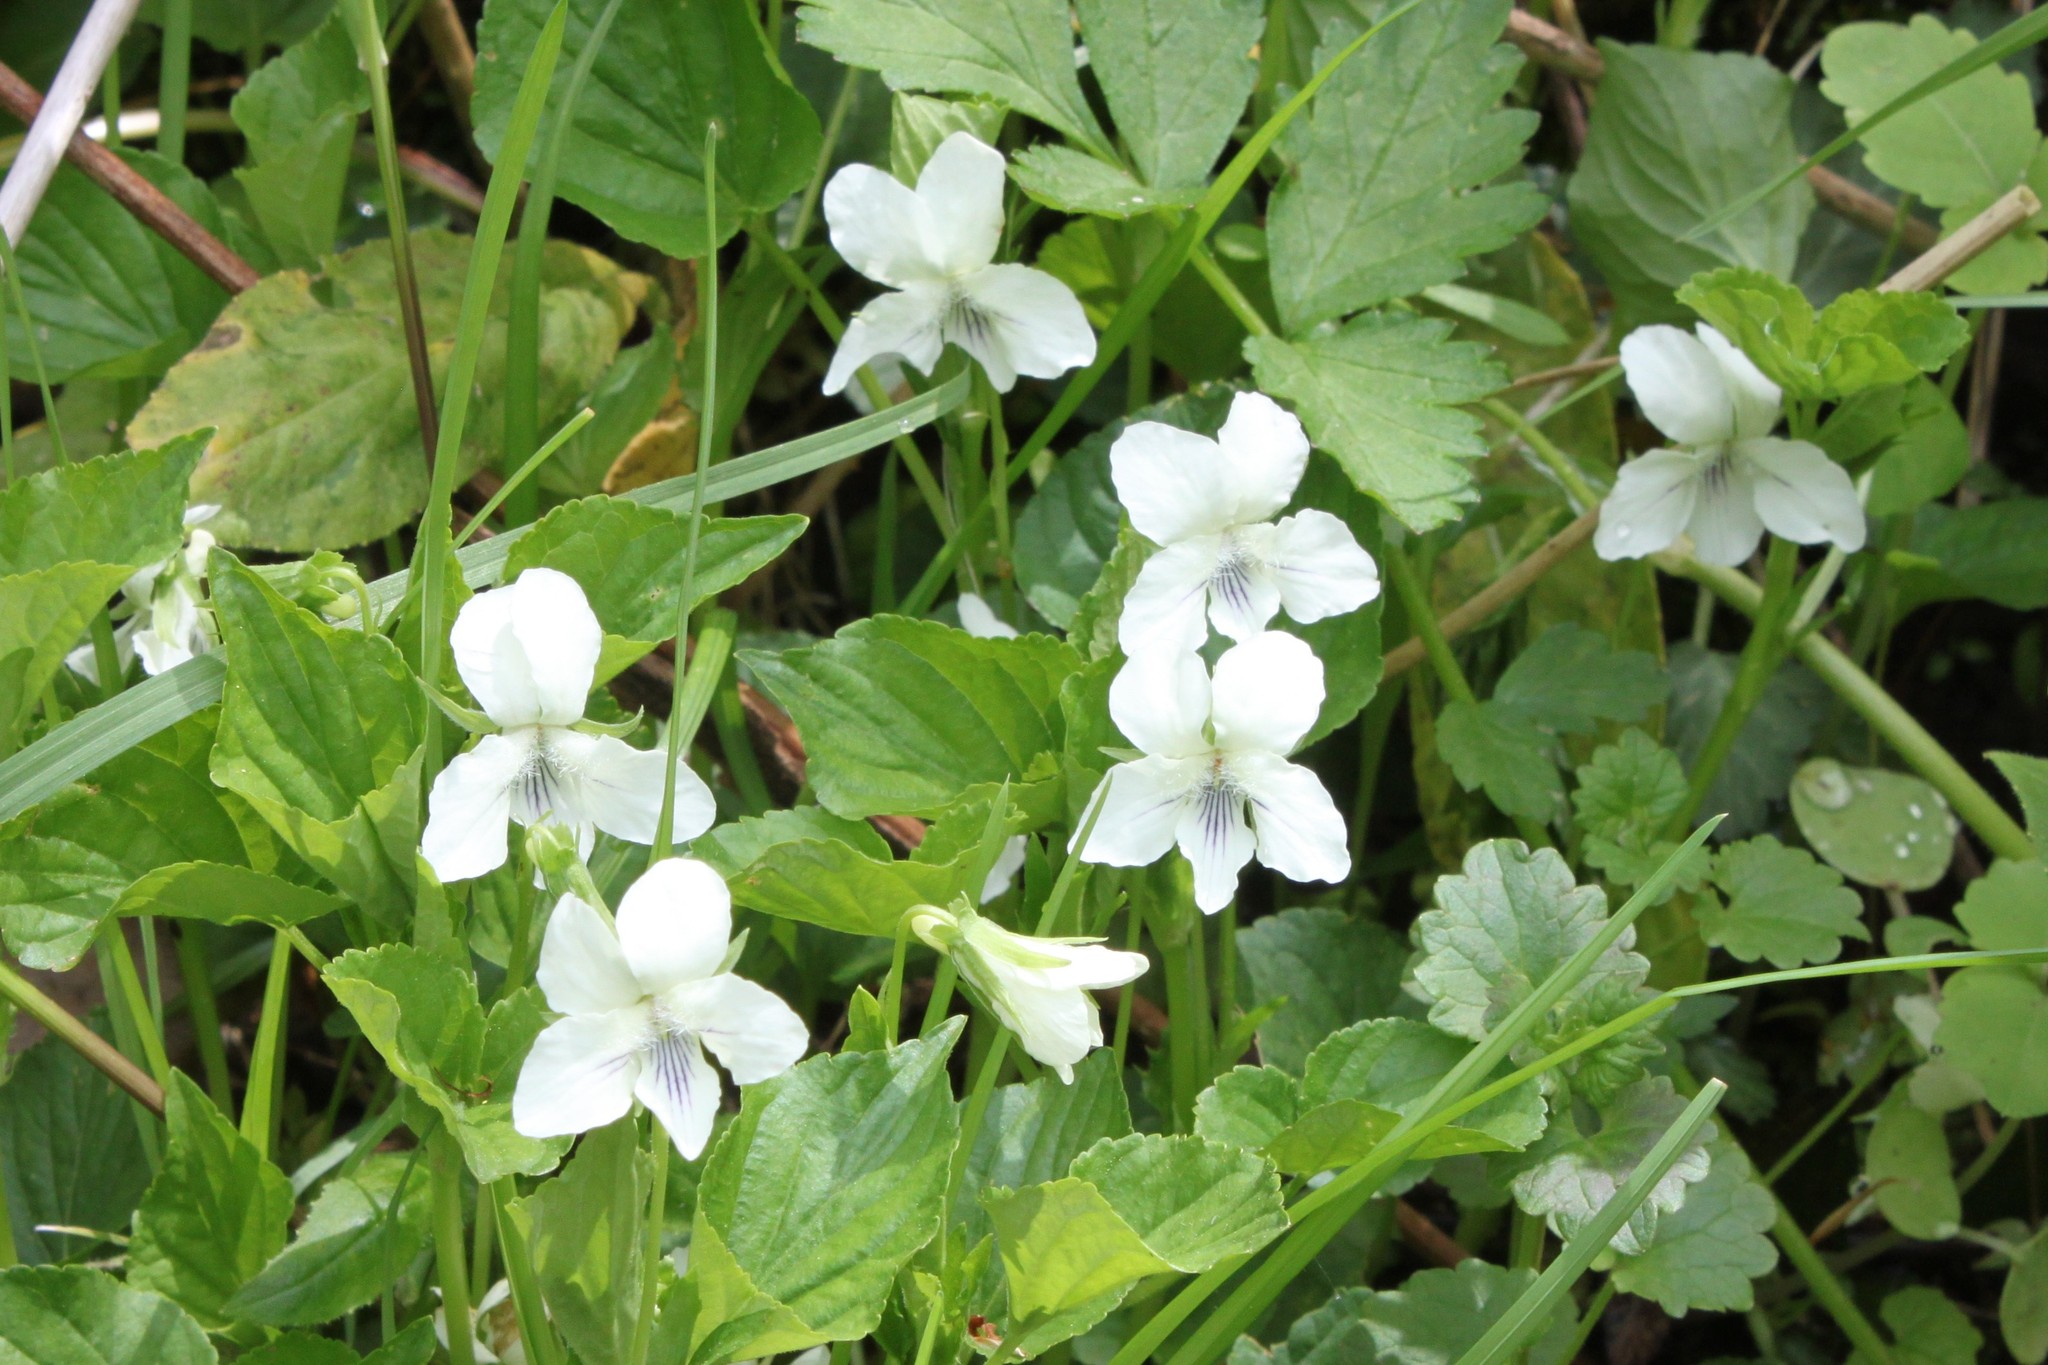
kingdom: Plantae
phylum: Tracheophyta
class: Magnoliopsida
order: Malpighiales
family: Violaceae
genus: Viola
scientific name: Viola sororia
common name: Dooryard violet
